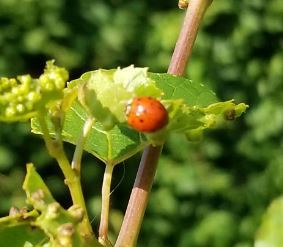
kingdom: Animalia
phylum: Arthropoda
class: Insecta
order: Coleoptera
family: Coccinellidae
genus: Harmonia
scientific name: Harmonia axyridis
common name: Harlequin ladybird
